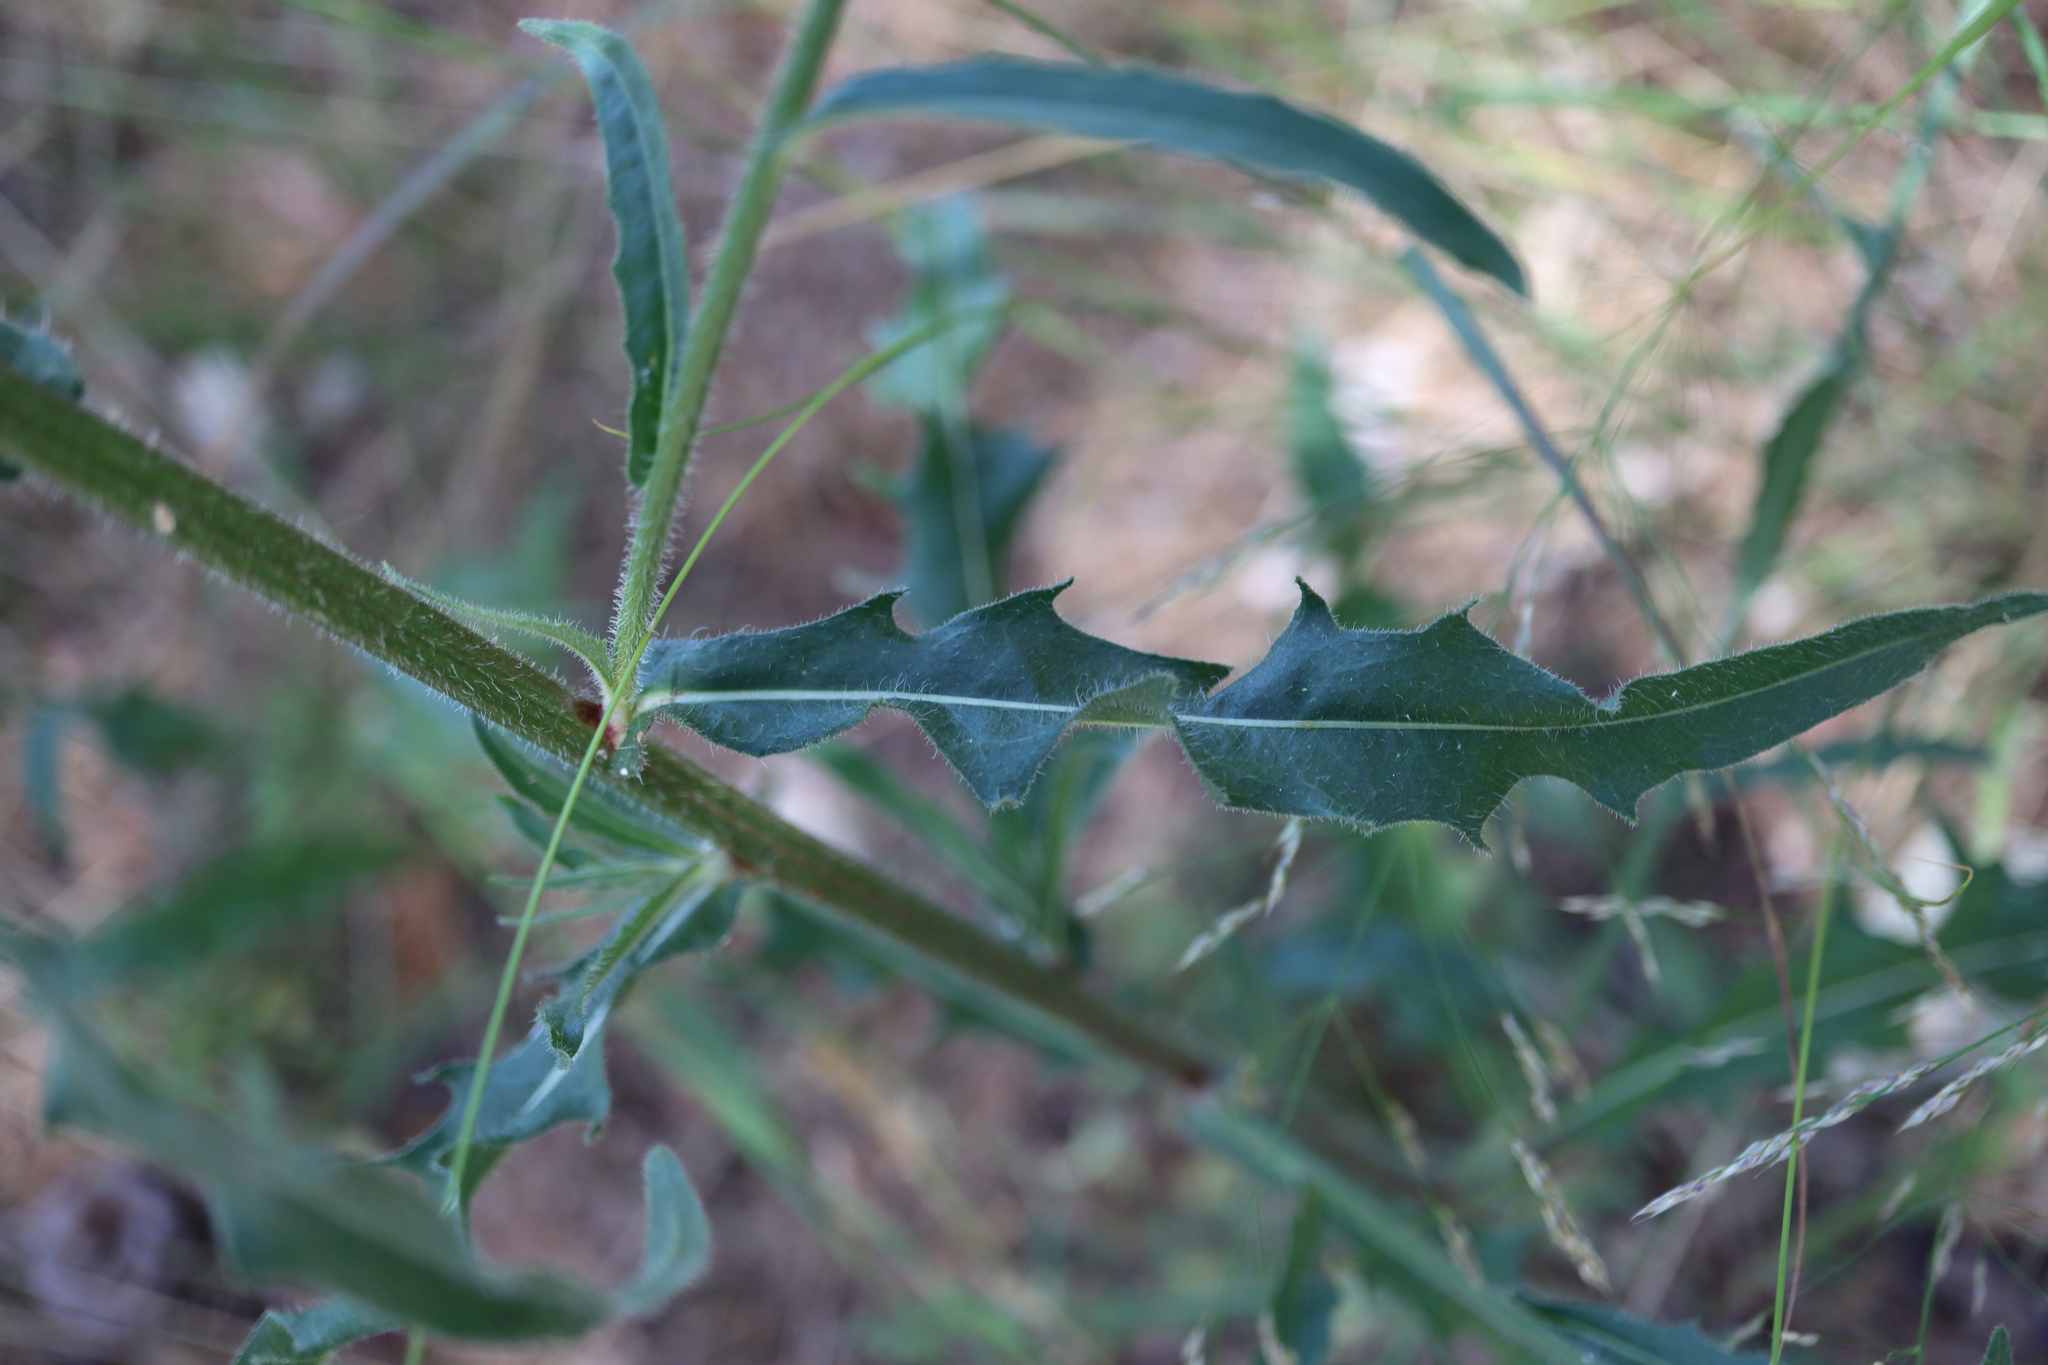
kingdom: Plantae
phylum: Tracheophyta
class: Magnoliopsida
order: Asterales
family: Asteraceae
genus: Picris
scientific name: Picris hieracioides
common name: Hawkweed oxtongue
